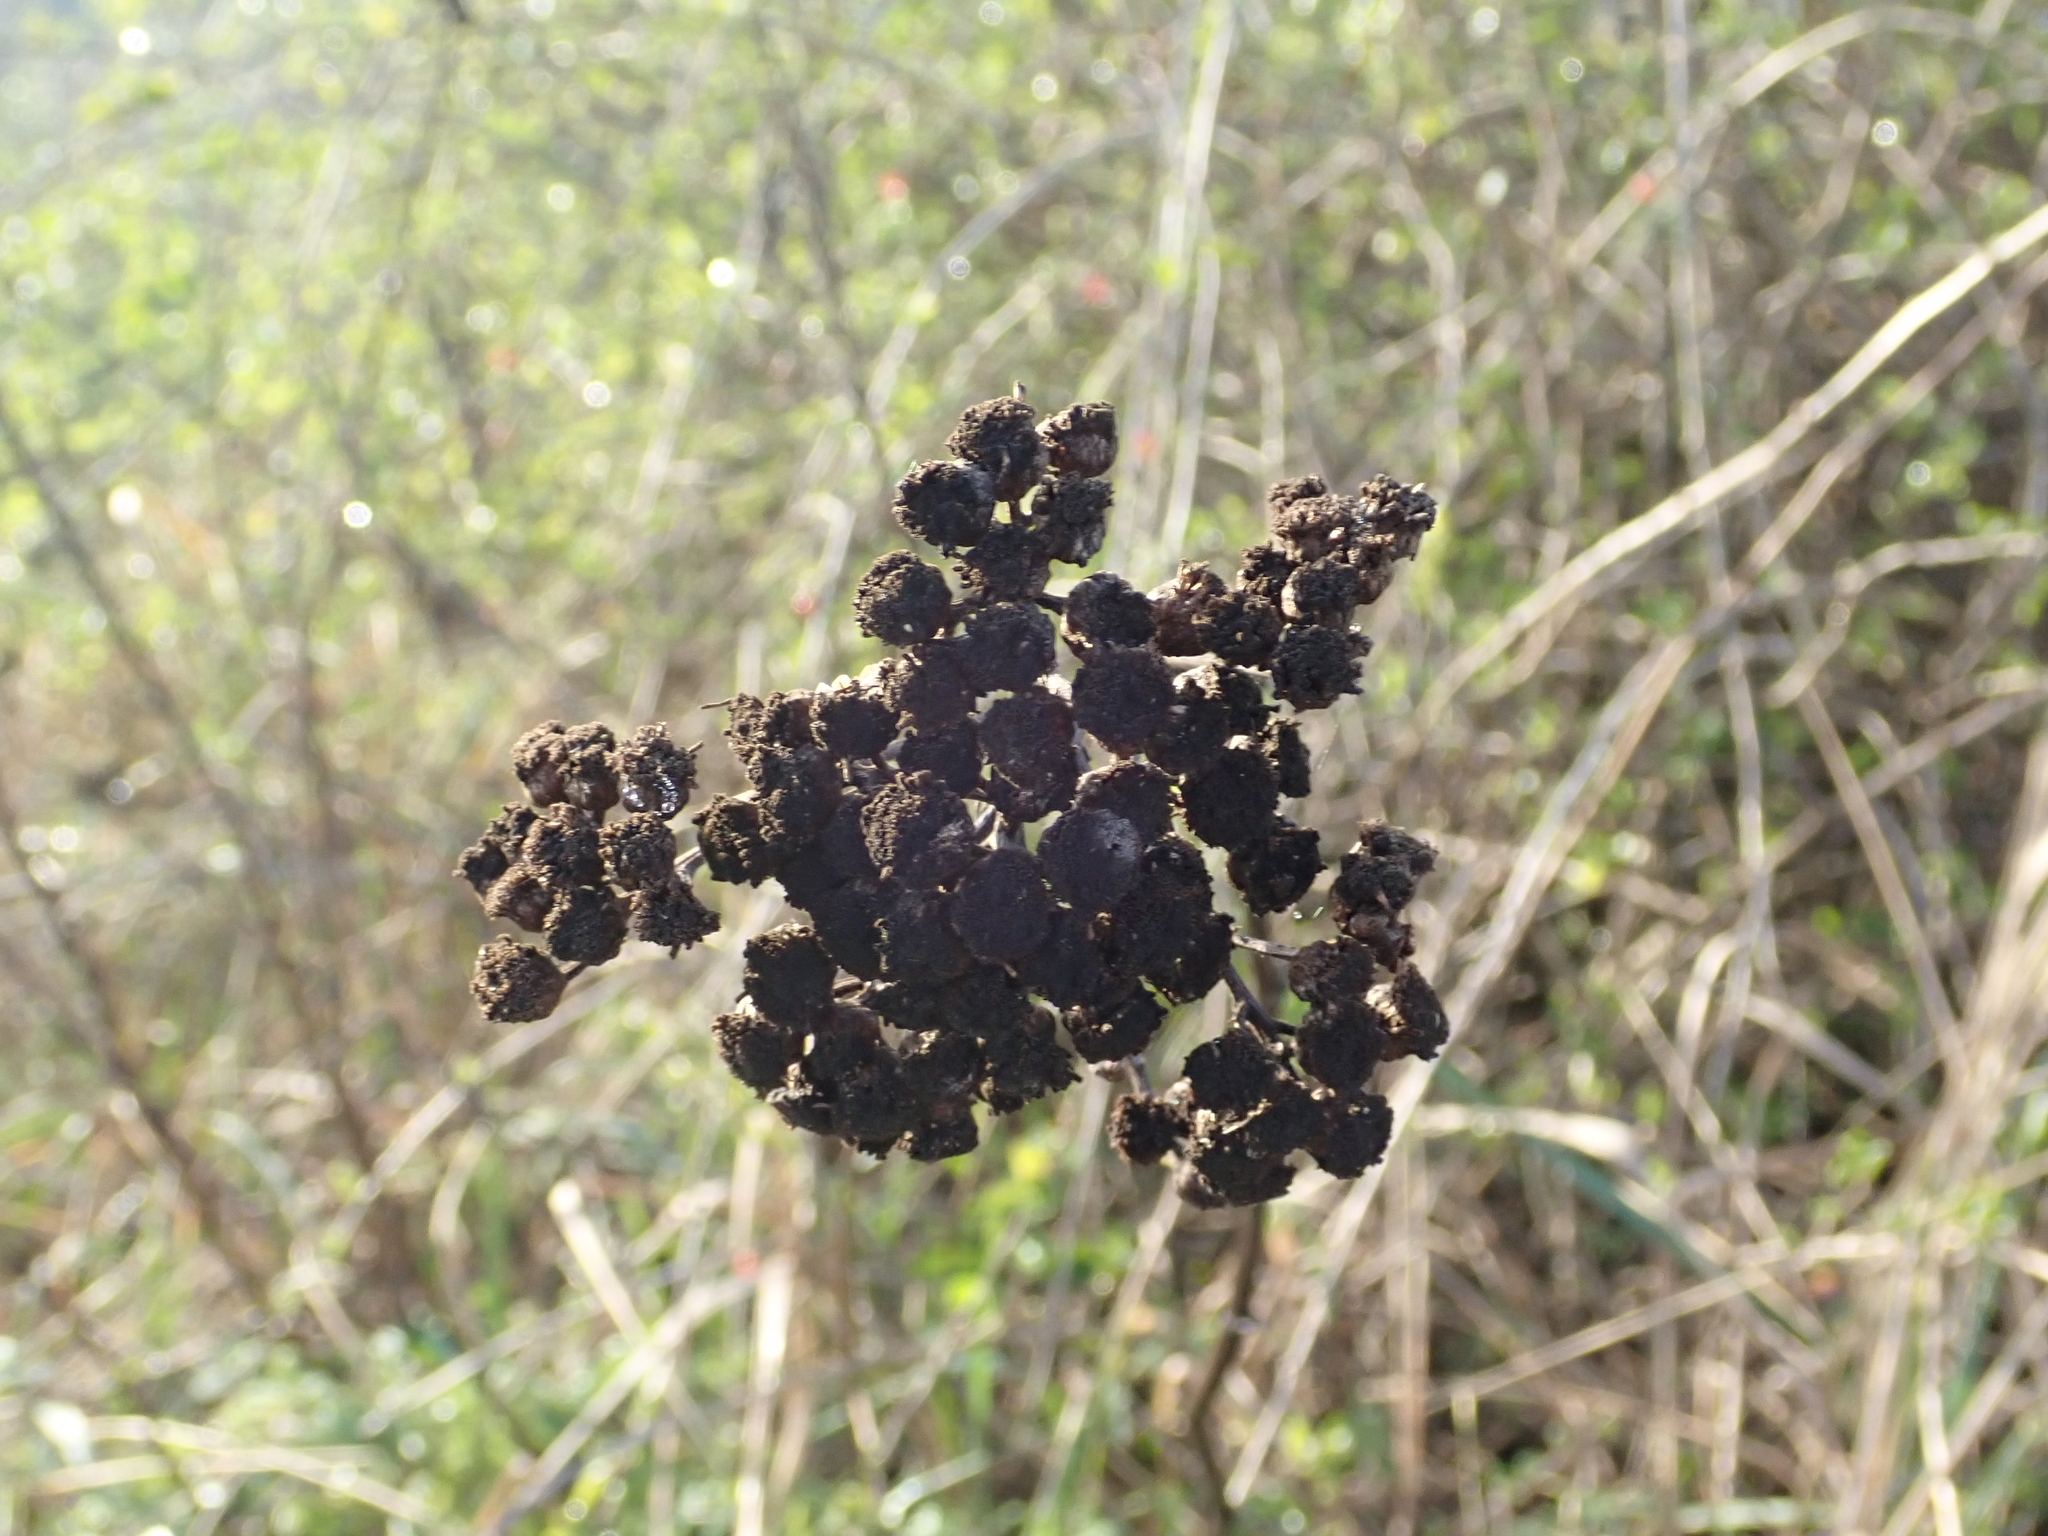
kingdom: Plantae
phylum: Tracheophyta
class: Magnoliopsida
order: Asterales
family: Asteraceae
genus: Tanacetum
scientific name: Tanacetum vulgare
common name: Common tansy
